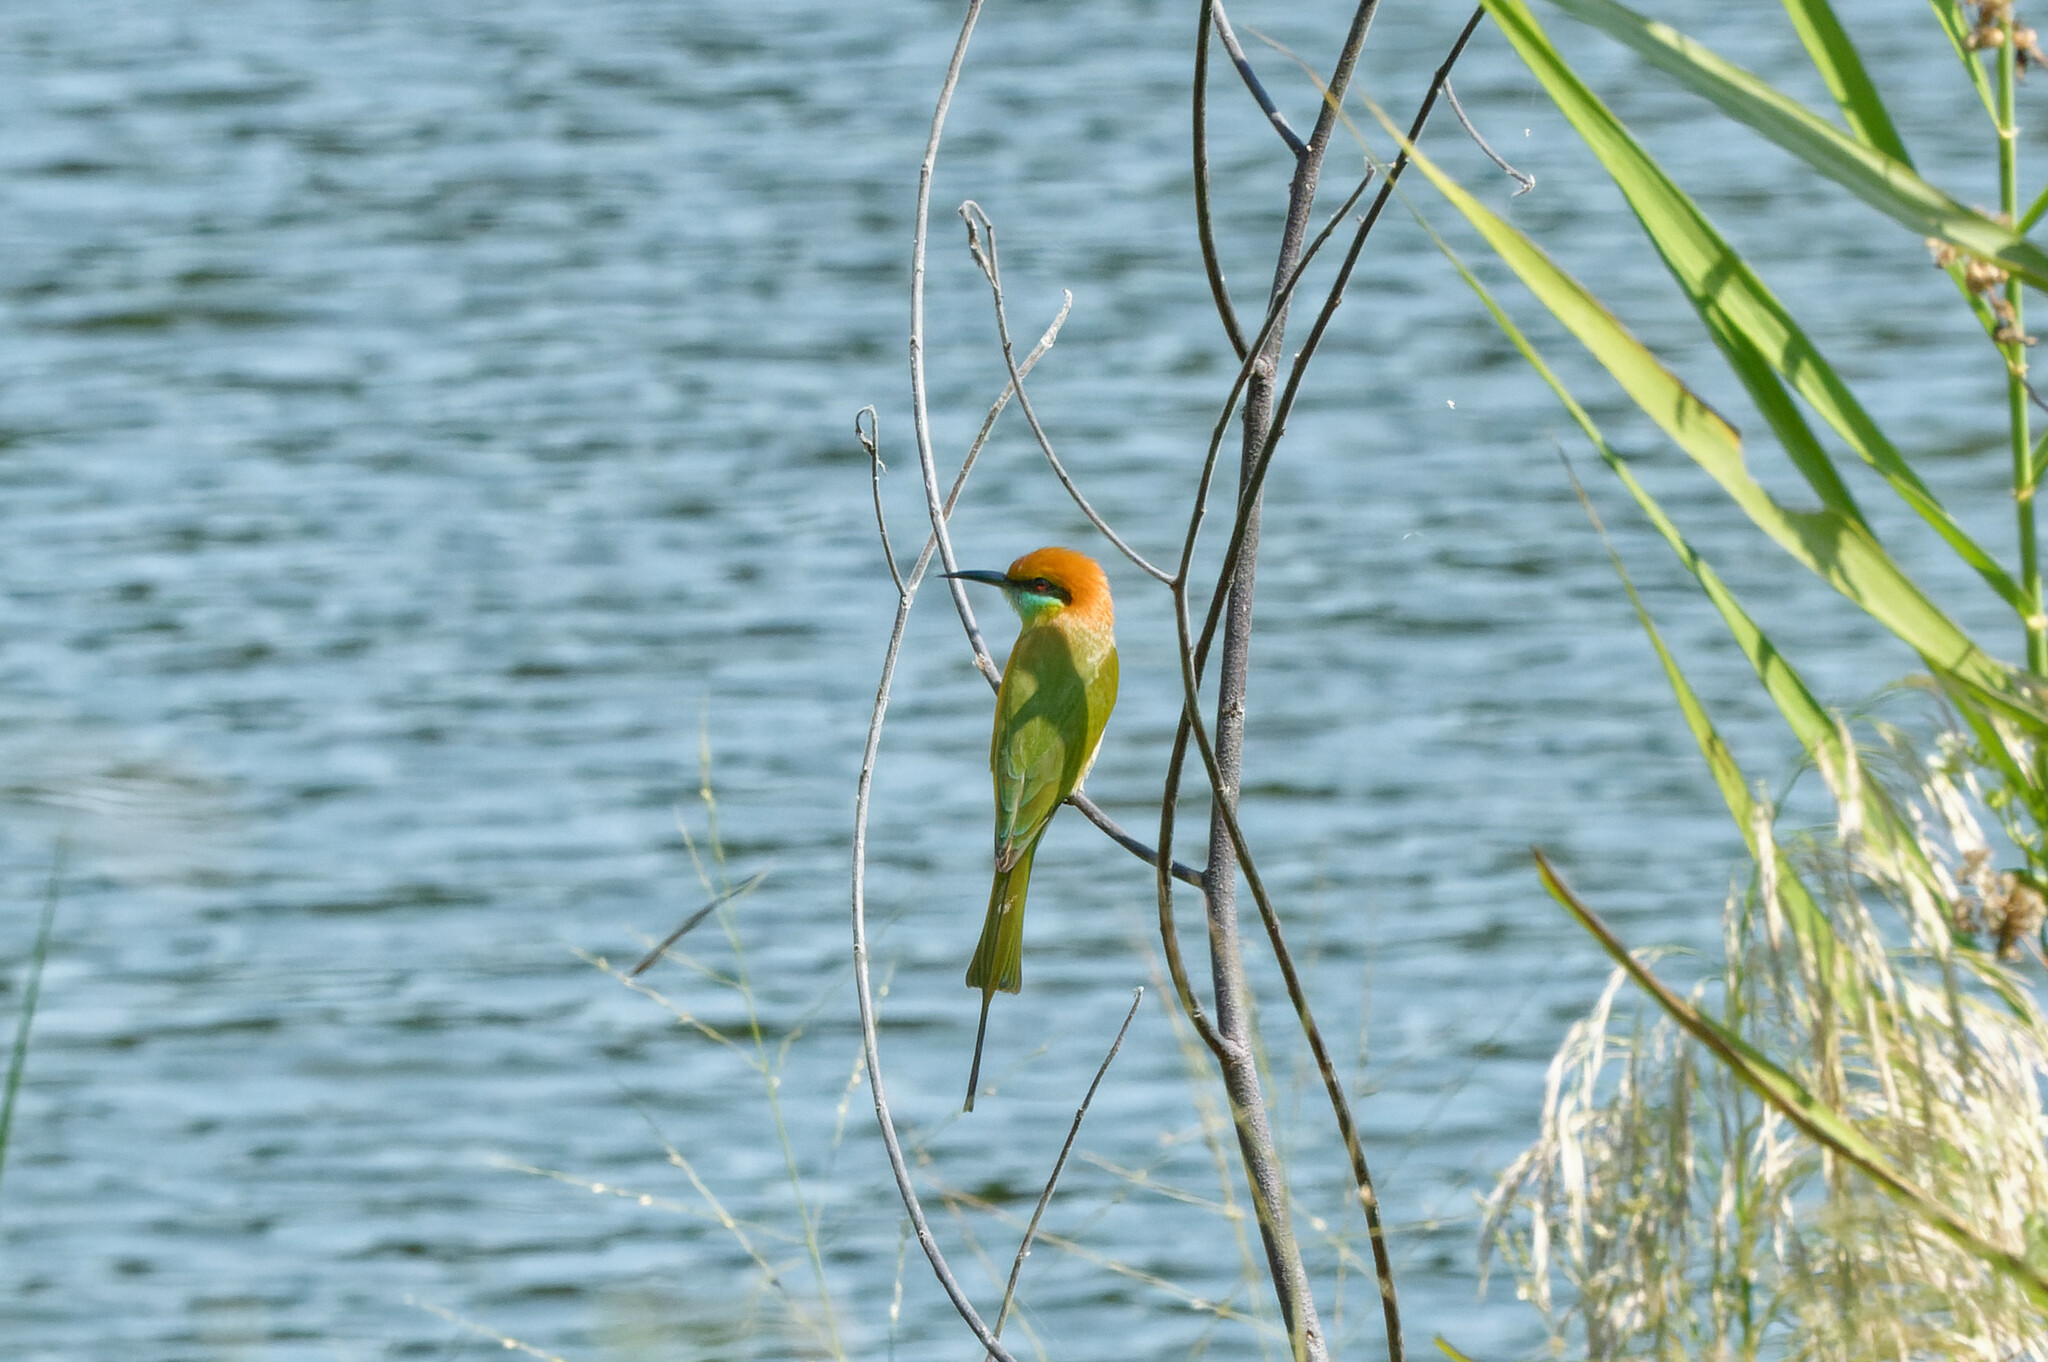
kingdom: Animalia
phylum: Chordata
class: Aves
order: Coraciiformes
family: Meropidae
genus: Merops
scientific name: Merops orientalis
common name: Green bee-eater
